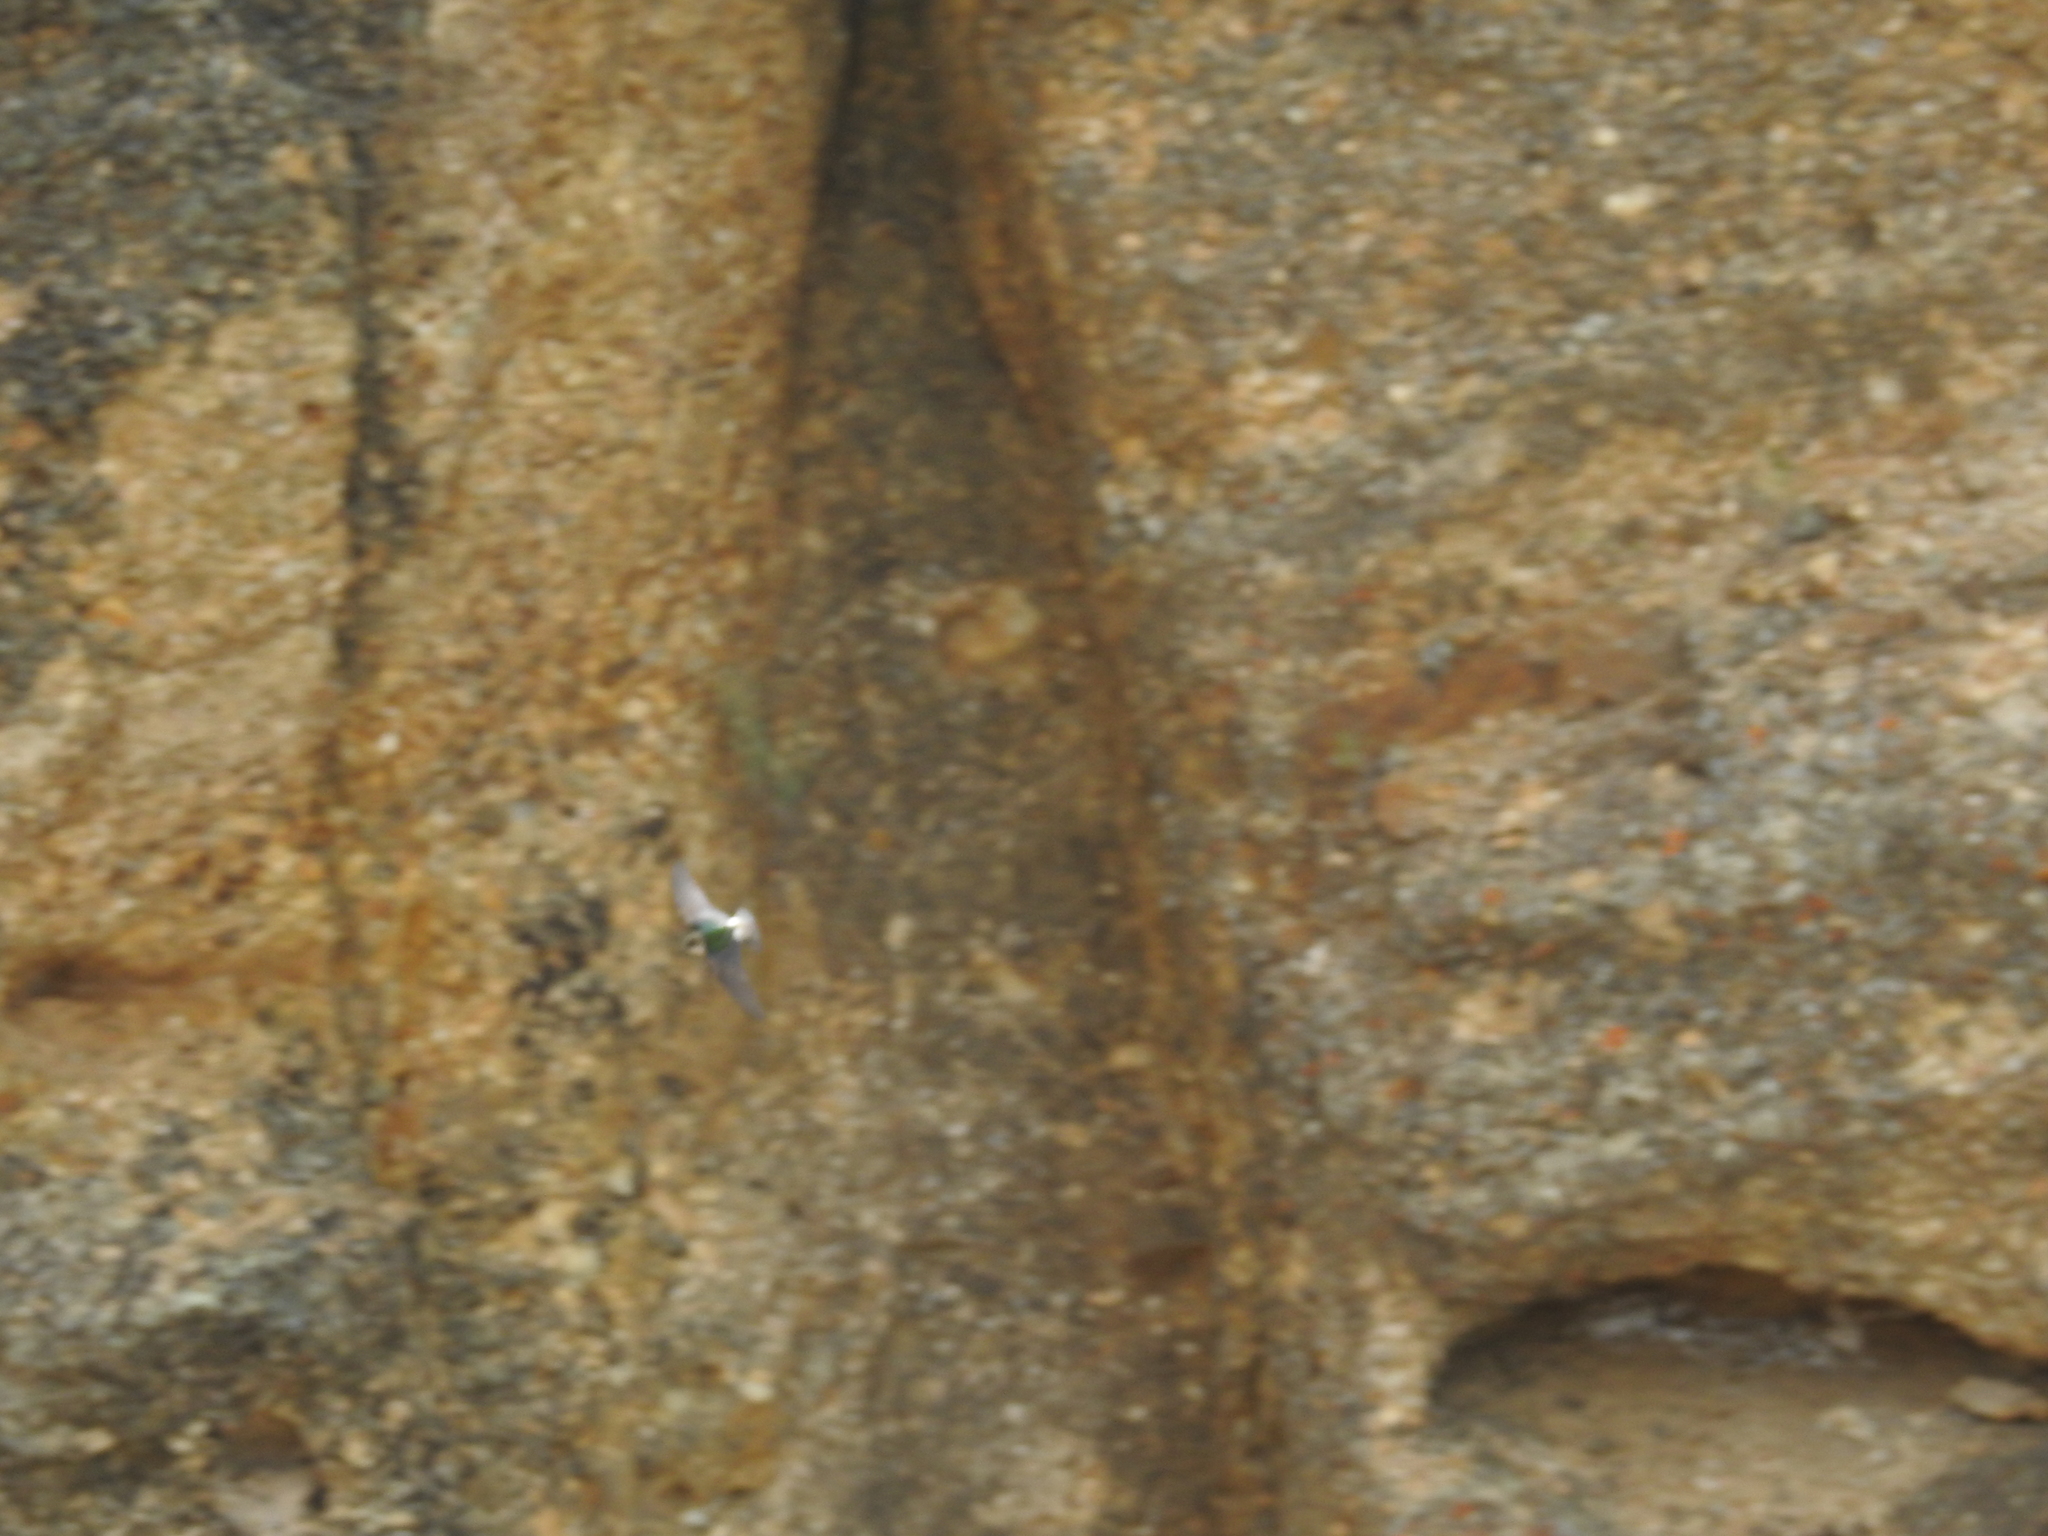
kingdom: Animalia
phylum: Chordata
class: Aves
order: Passeriformes
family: Hirundinidae
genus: Tachycineta
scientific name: Tachycineta thalassina
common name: Violet-green swallow
